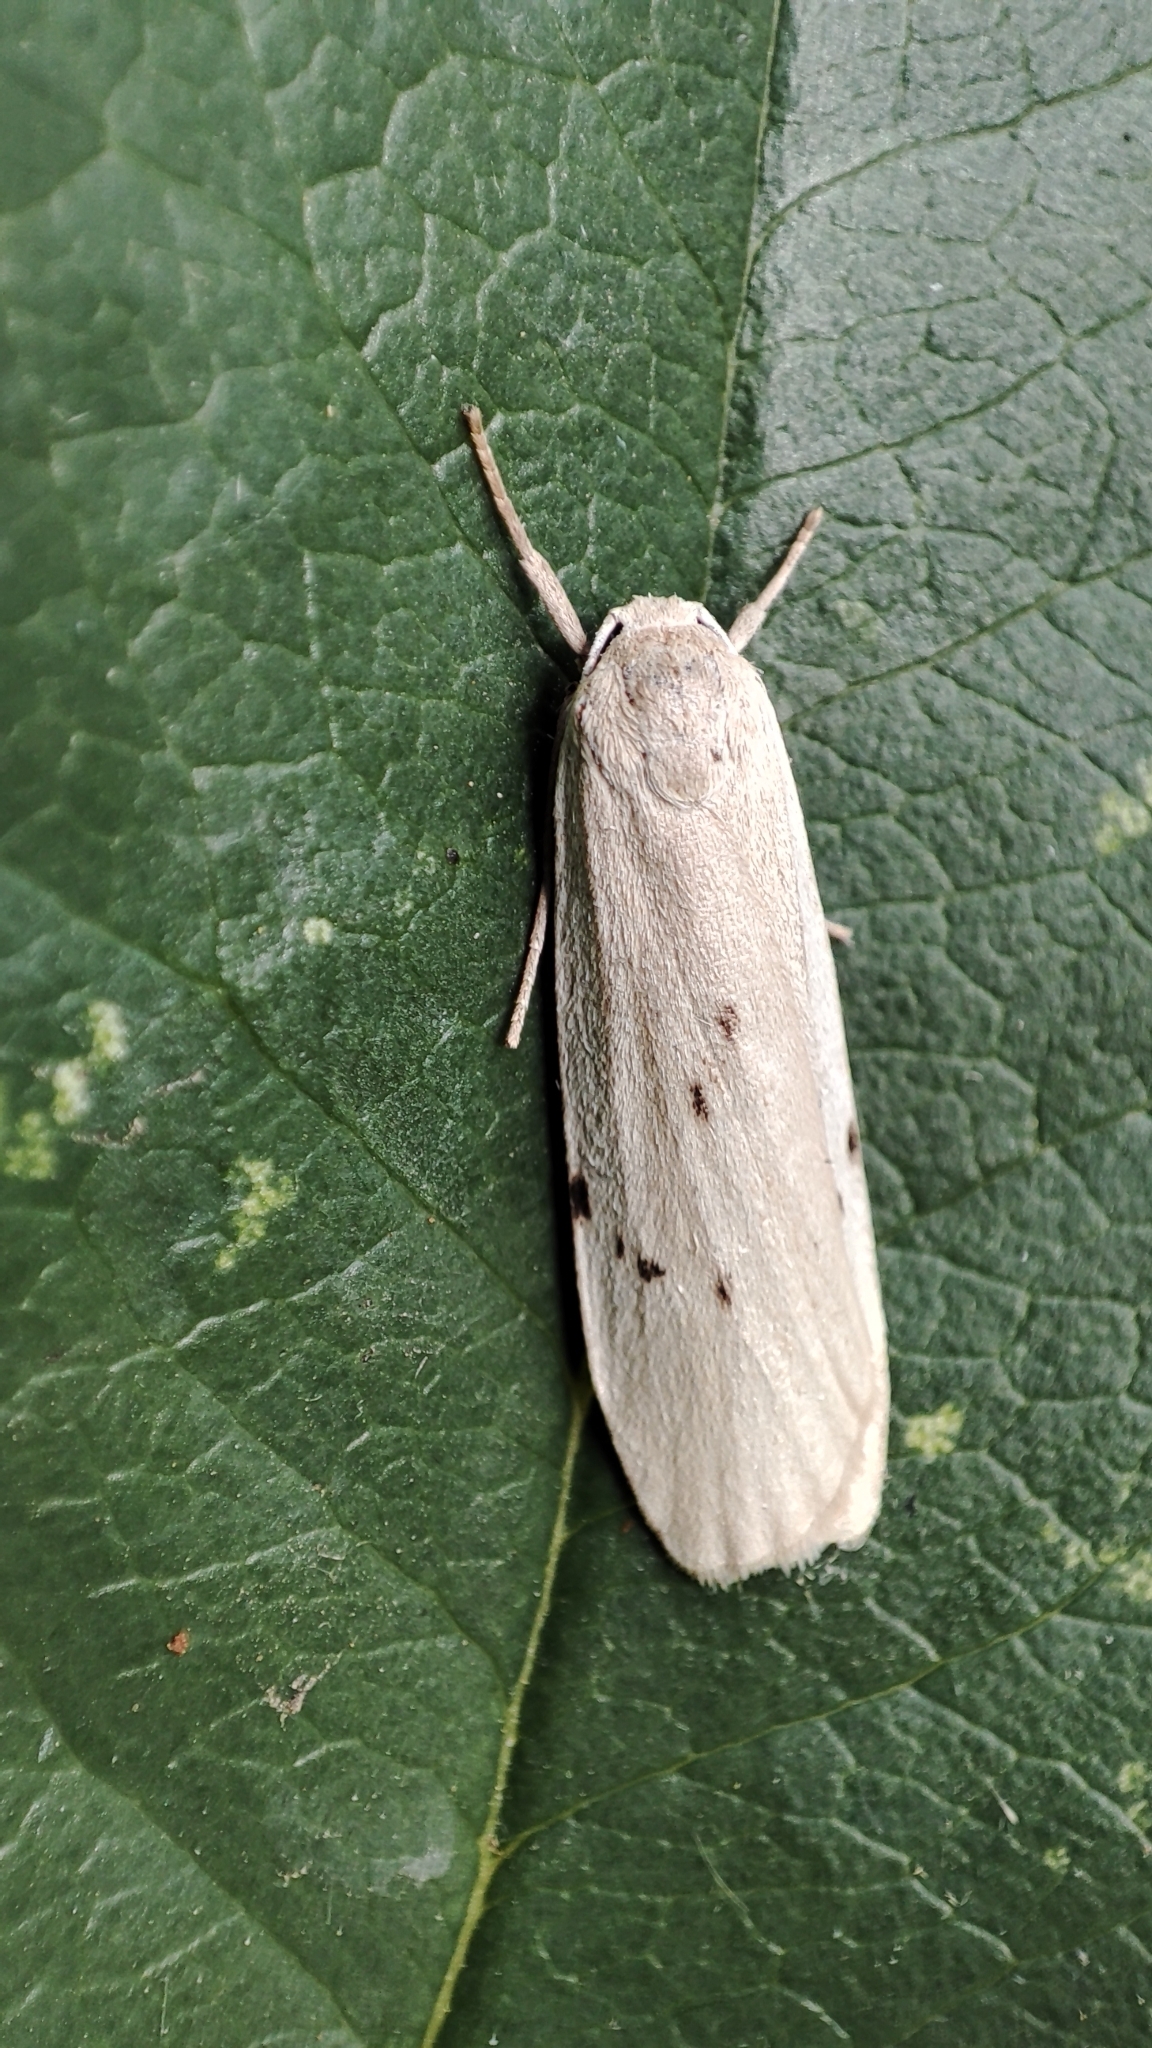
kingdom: Animalia
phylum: Arthropoda
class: Insecta
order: Lepidoptera
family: Erebidae
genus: Pelosia
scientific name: Pelosia muscerda
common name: Dotted footman
